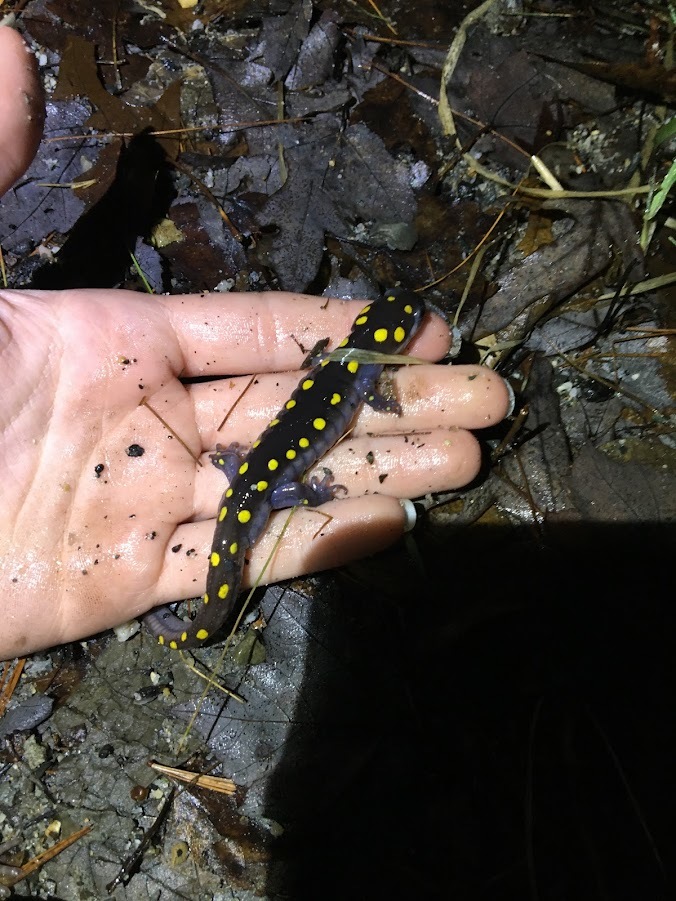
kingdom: Animalia
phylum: Chordata
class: Amphibia
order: Caudata
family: Ambystomatidae
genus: Ambystoma
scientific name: Ambystoma maculatum
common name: Spotted salamander
